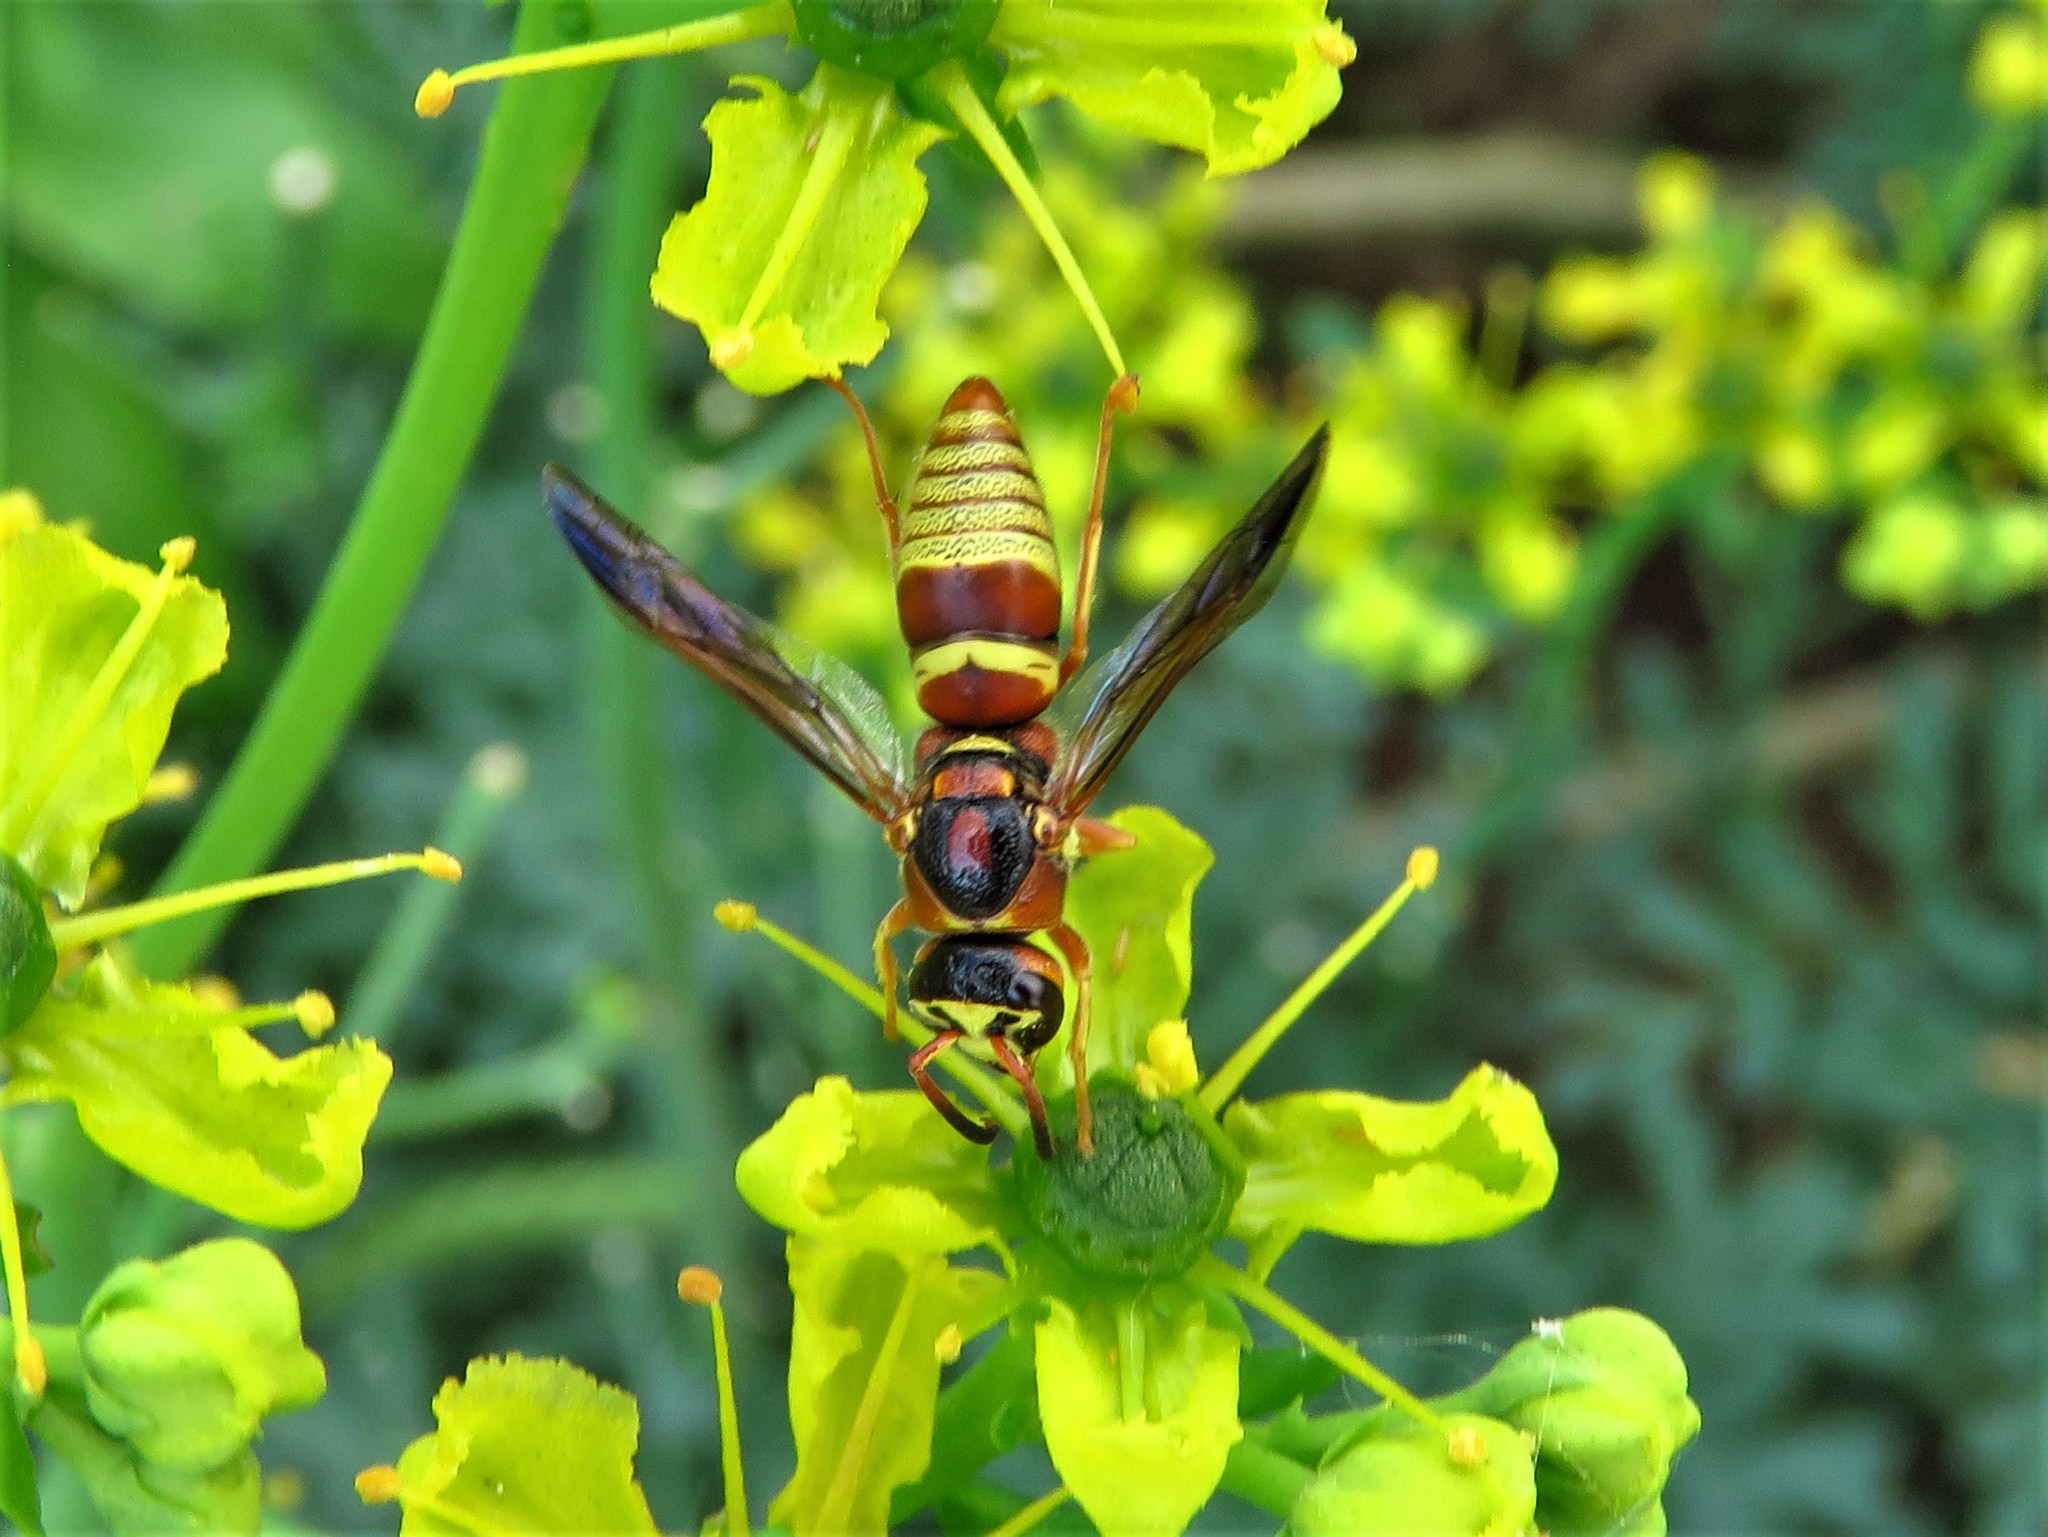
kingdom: Animalia
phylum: Arthropoda
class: Insecta
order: Hymenoptera
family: Eumenidae
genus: Euodynerus
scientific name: Euodynerus pratensis
